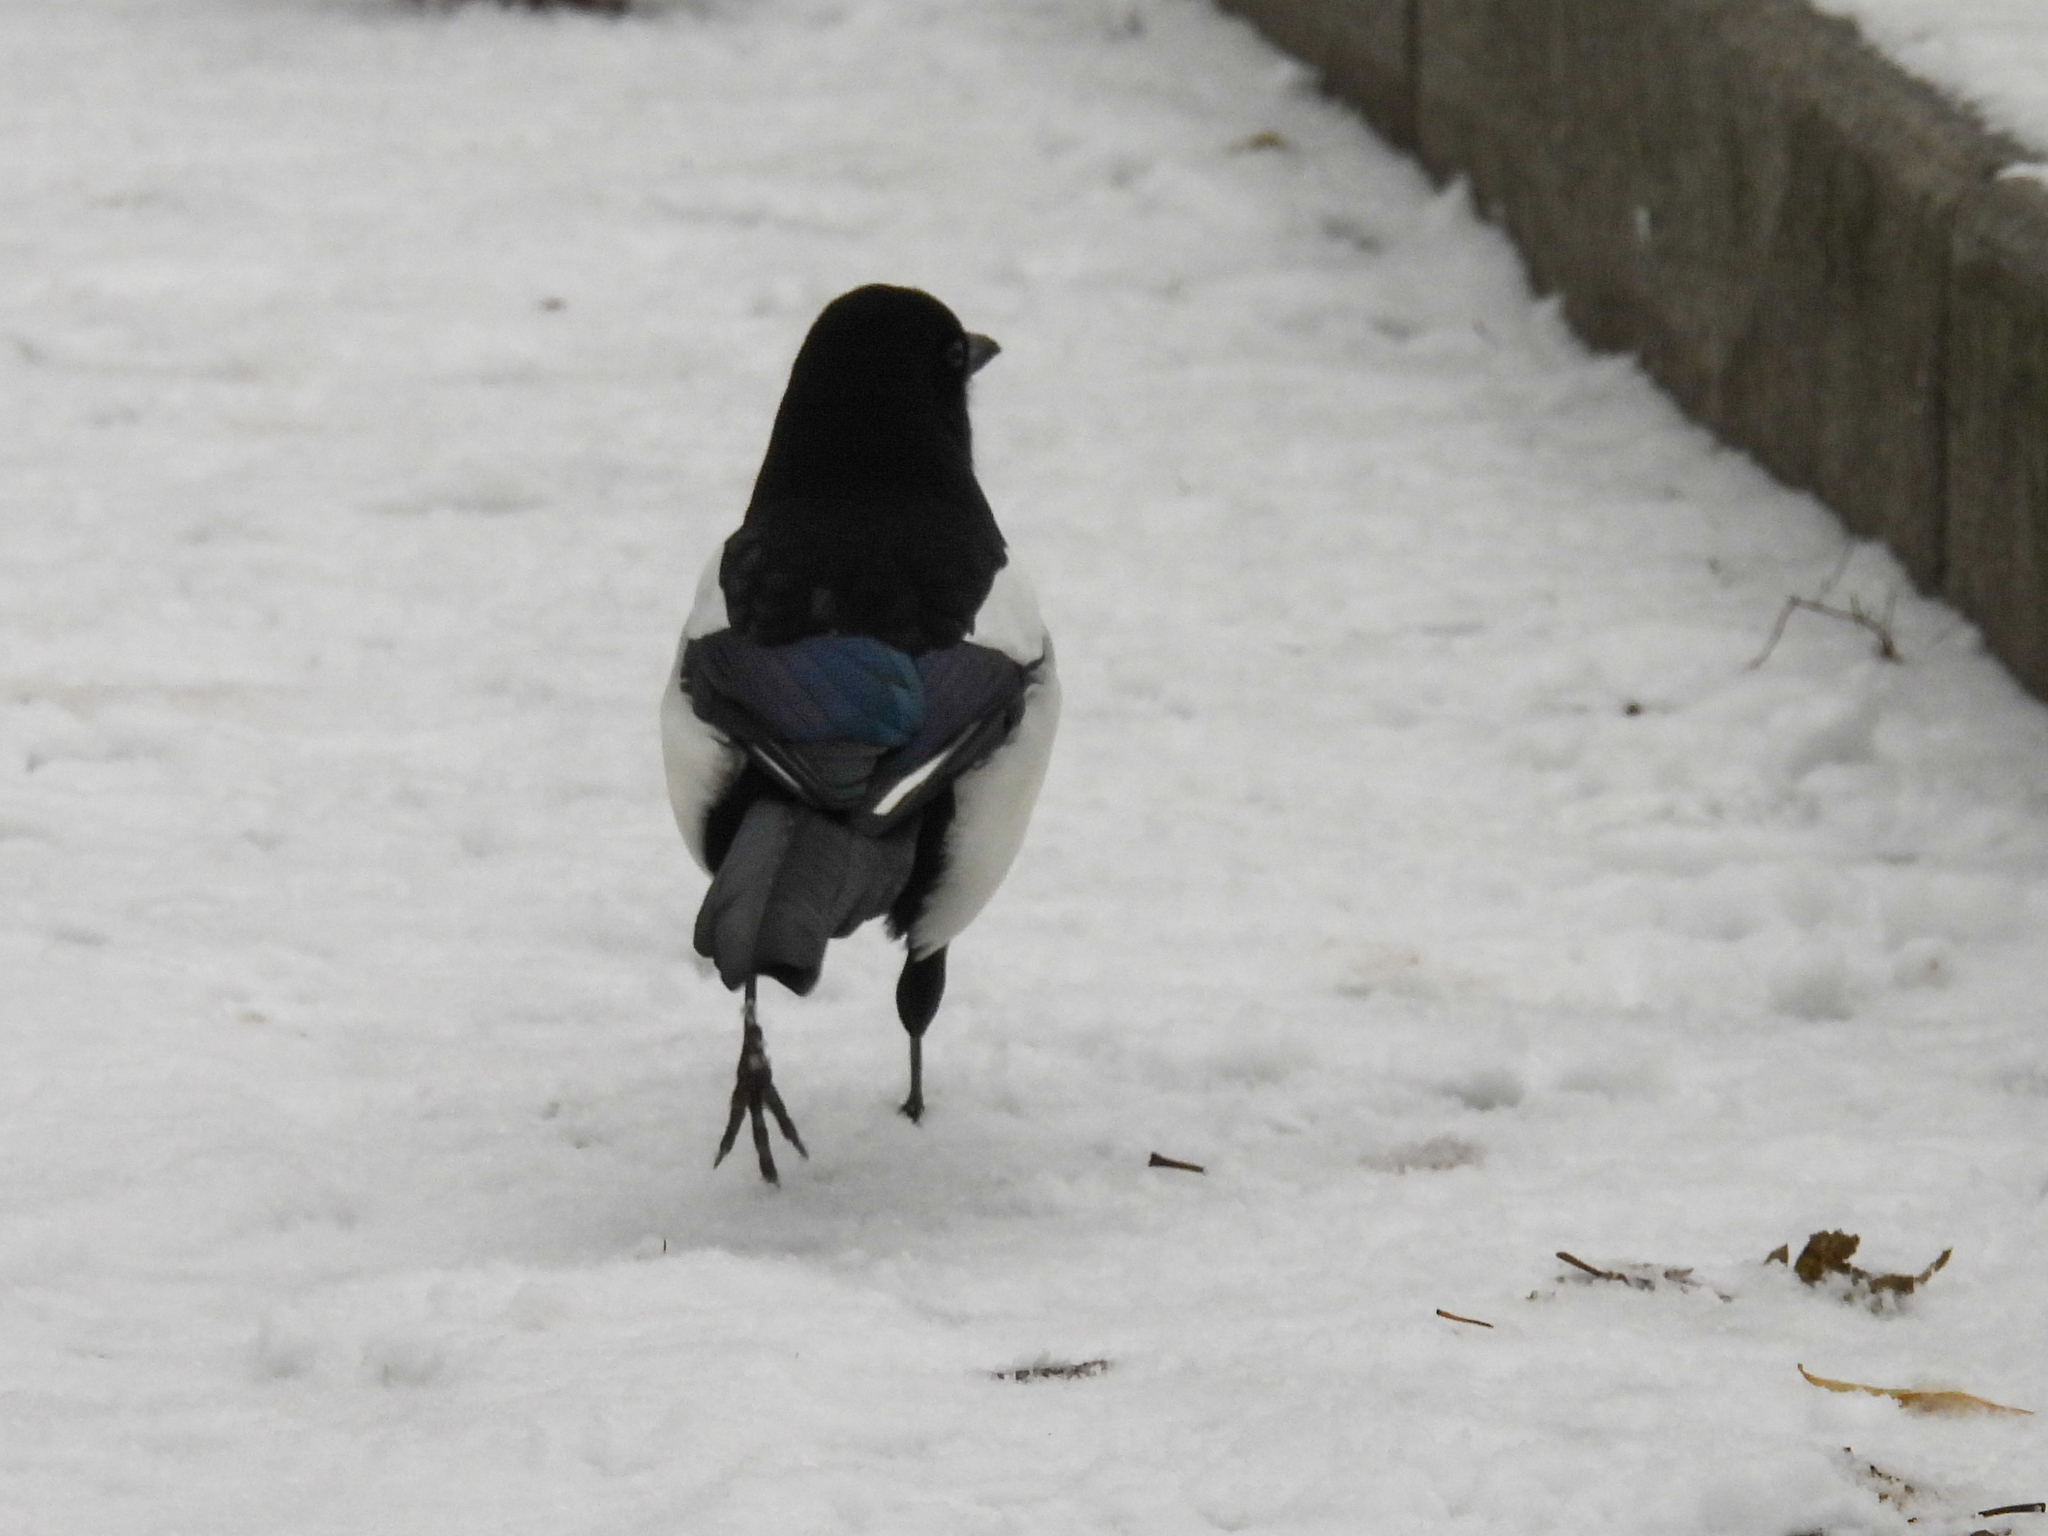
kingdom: Animalia
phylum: Chordata
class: Aves
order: Passeriformes
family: Corvidae
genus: Pica
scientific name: Pica pica
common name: Eurasian magpie
